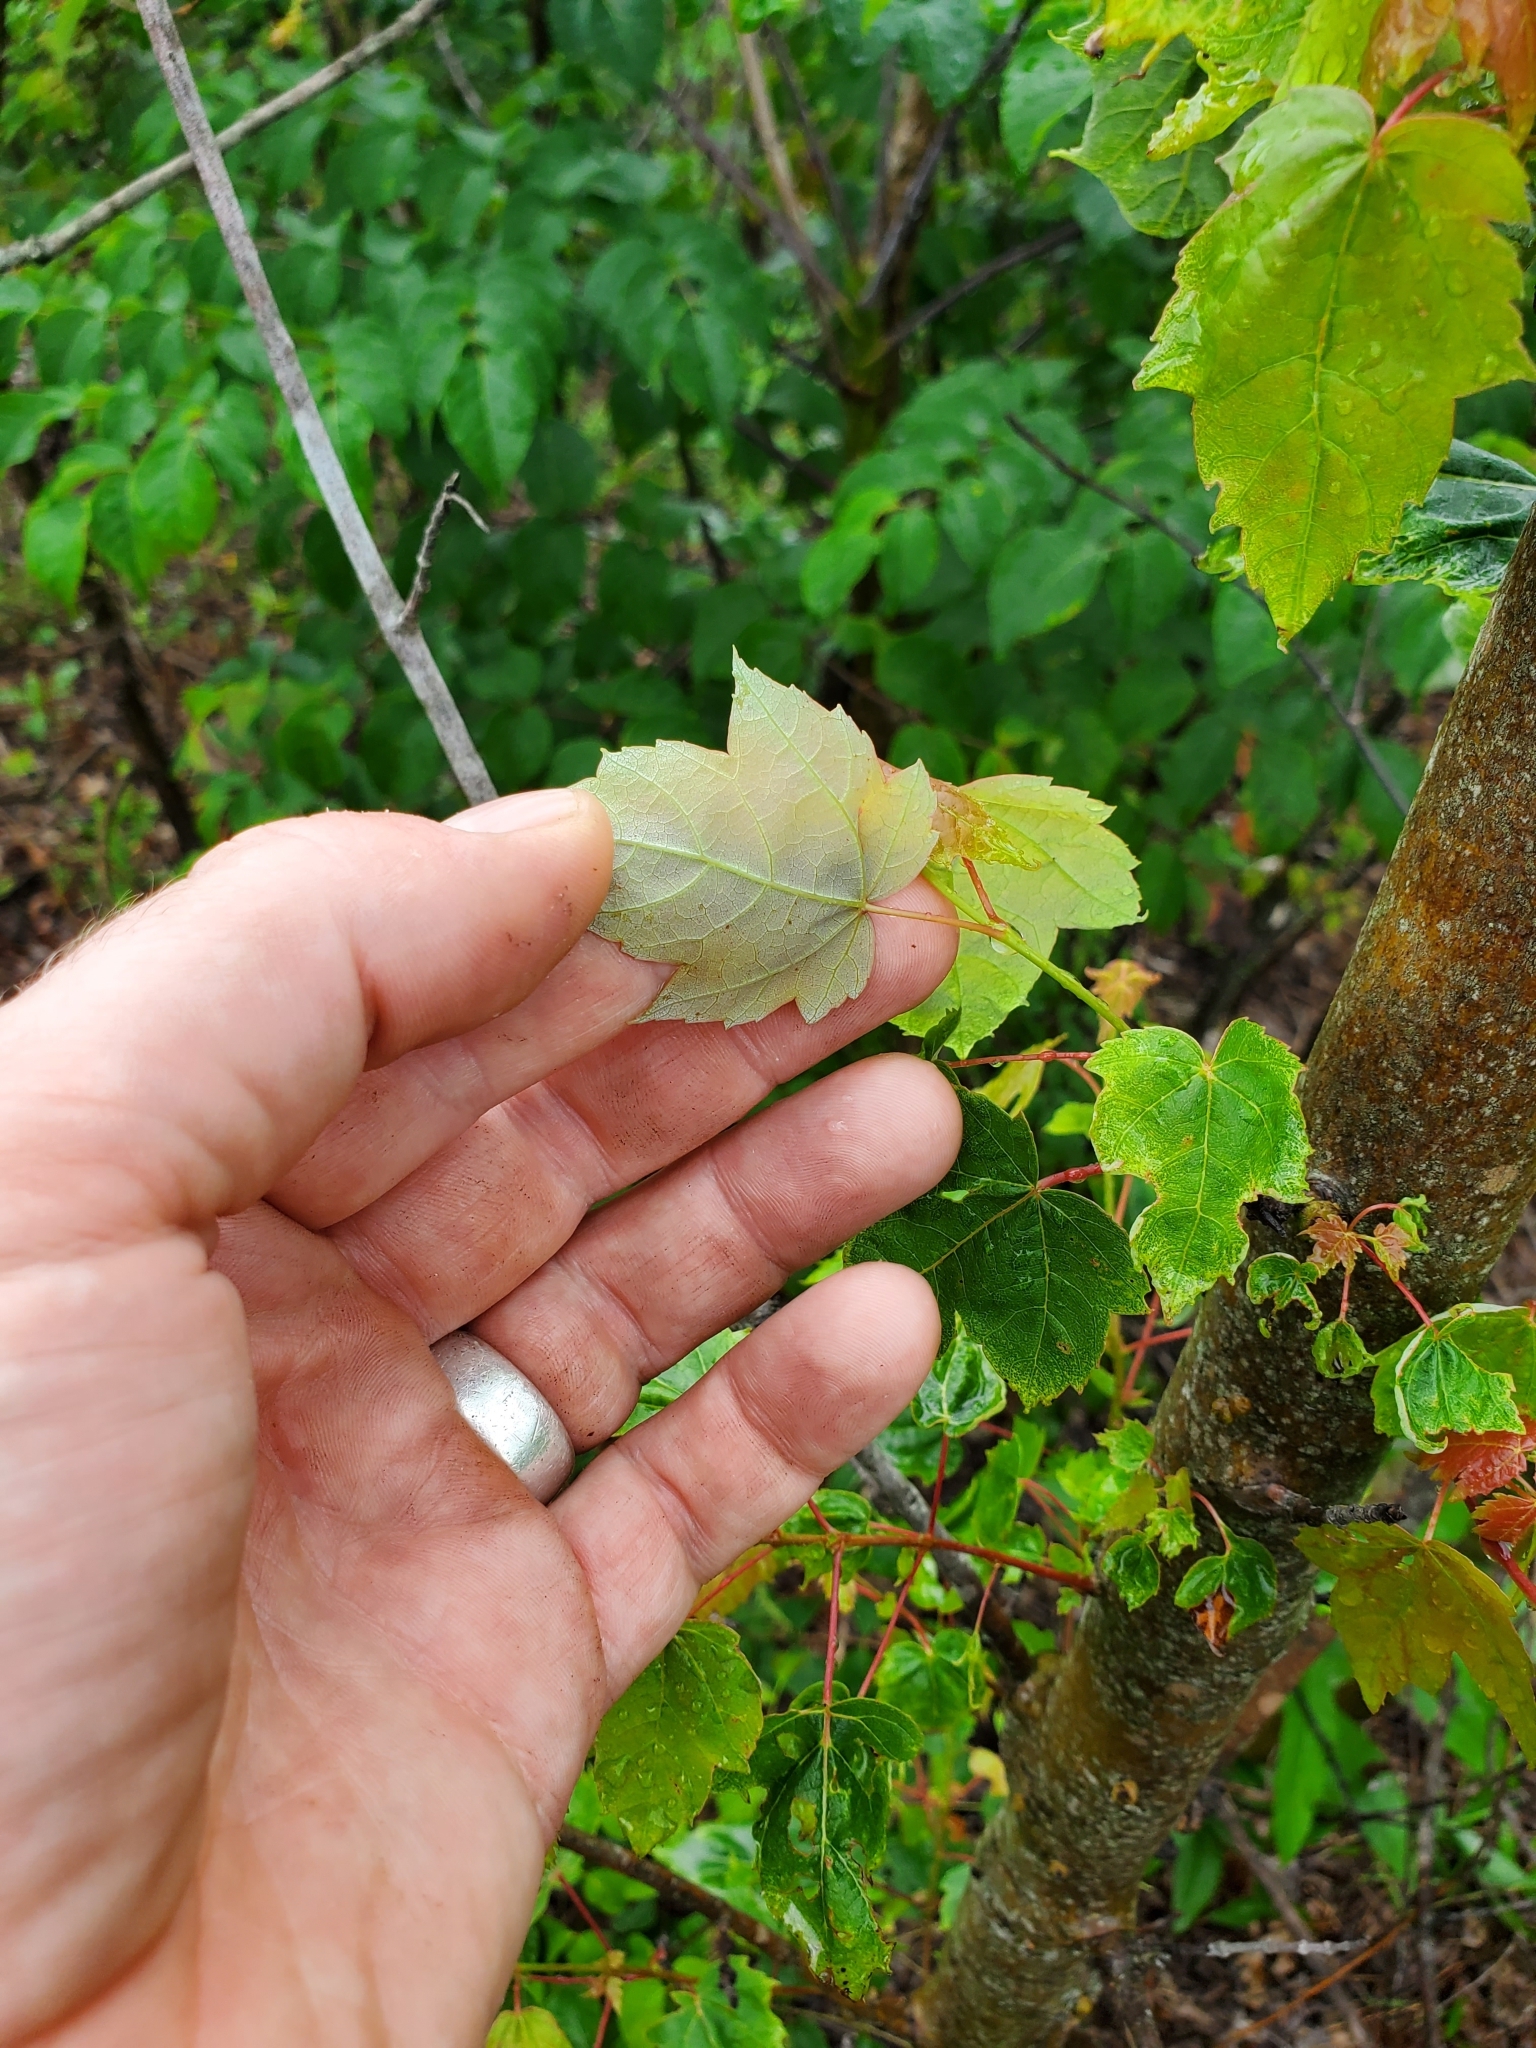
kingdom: Plantae
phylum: Tracheophyta
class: Magnoliopsida
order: Sapindales
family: Sapindaceae
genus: Acer
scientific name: Acer rubrum
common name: Red maple
